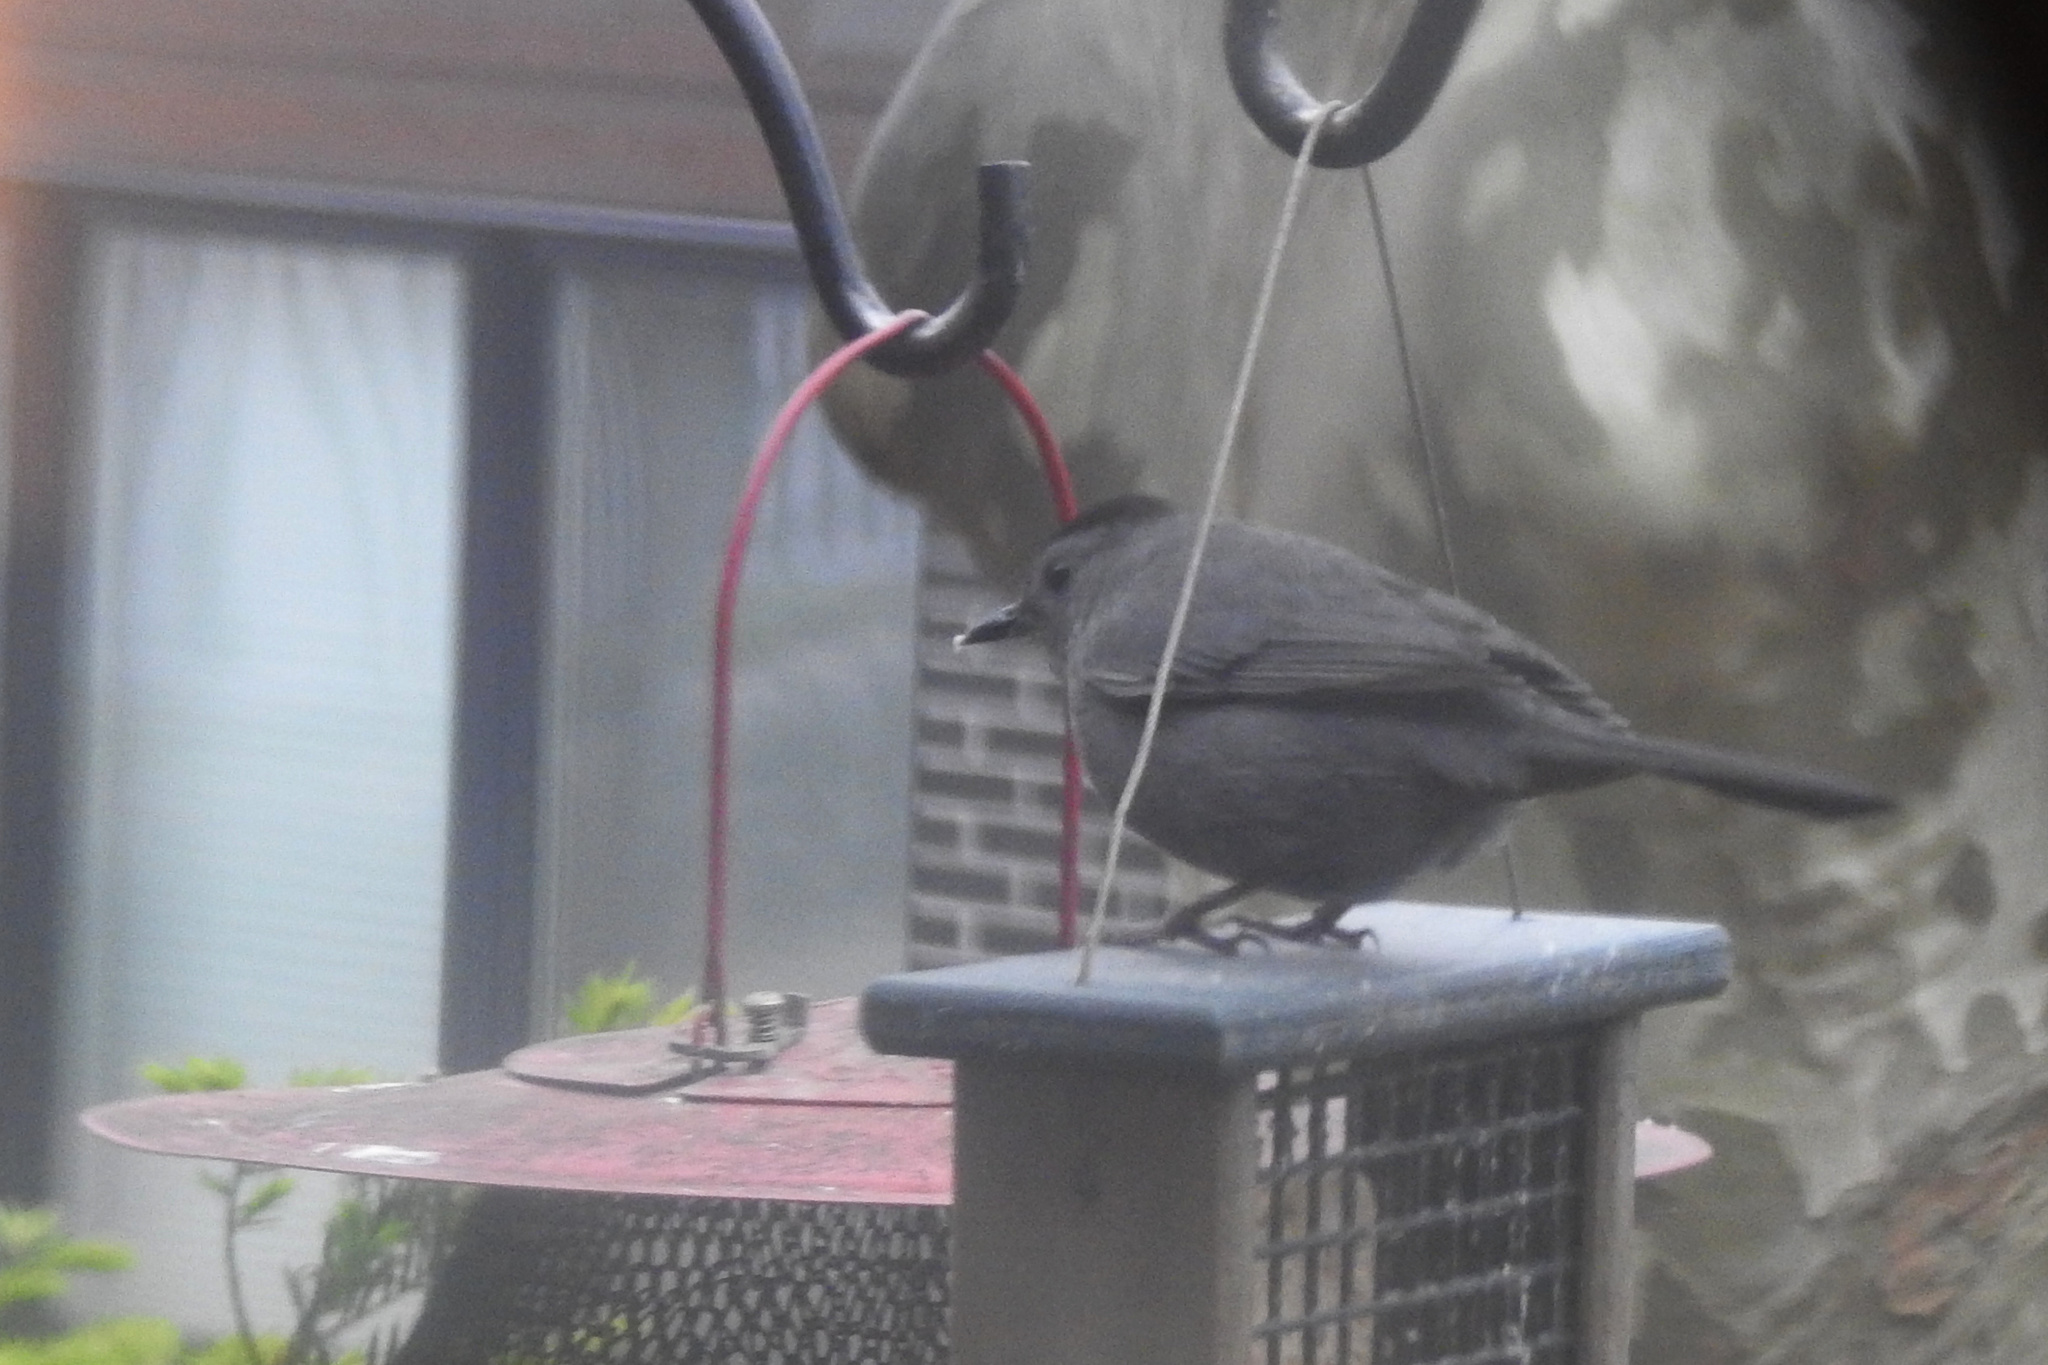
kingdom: Animalia
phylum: Chordata
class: Aves
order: Passeriformes
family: Mimidae
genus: Dumetella
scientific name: Dumetella carolinensis
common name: Gray catbird
